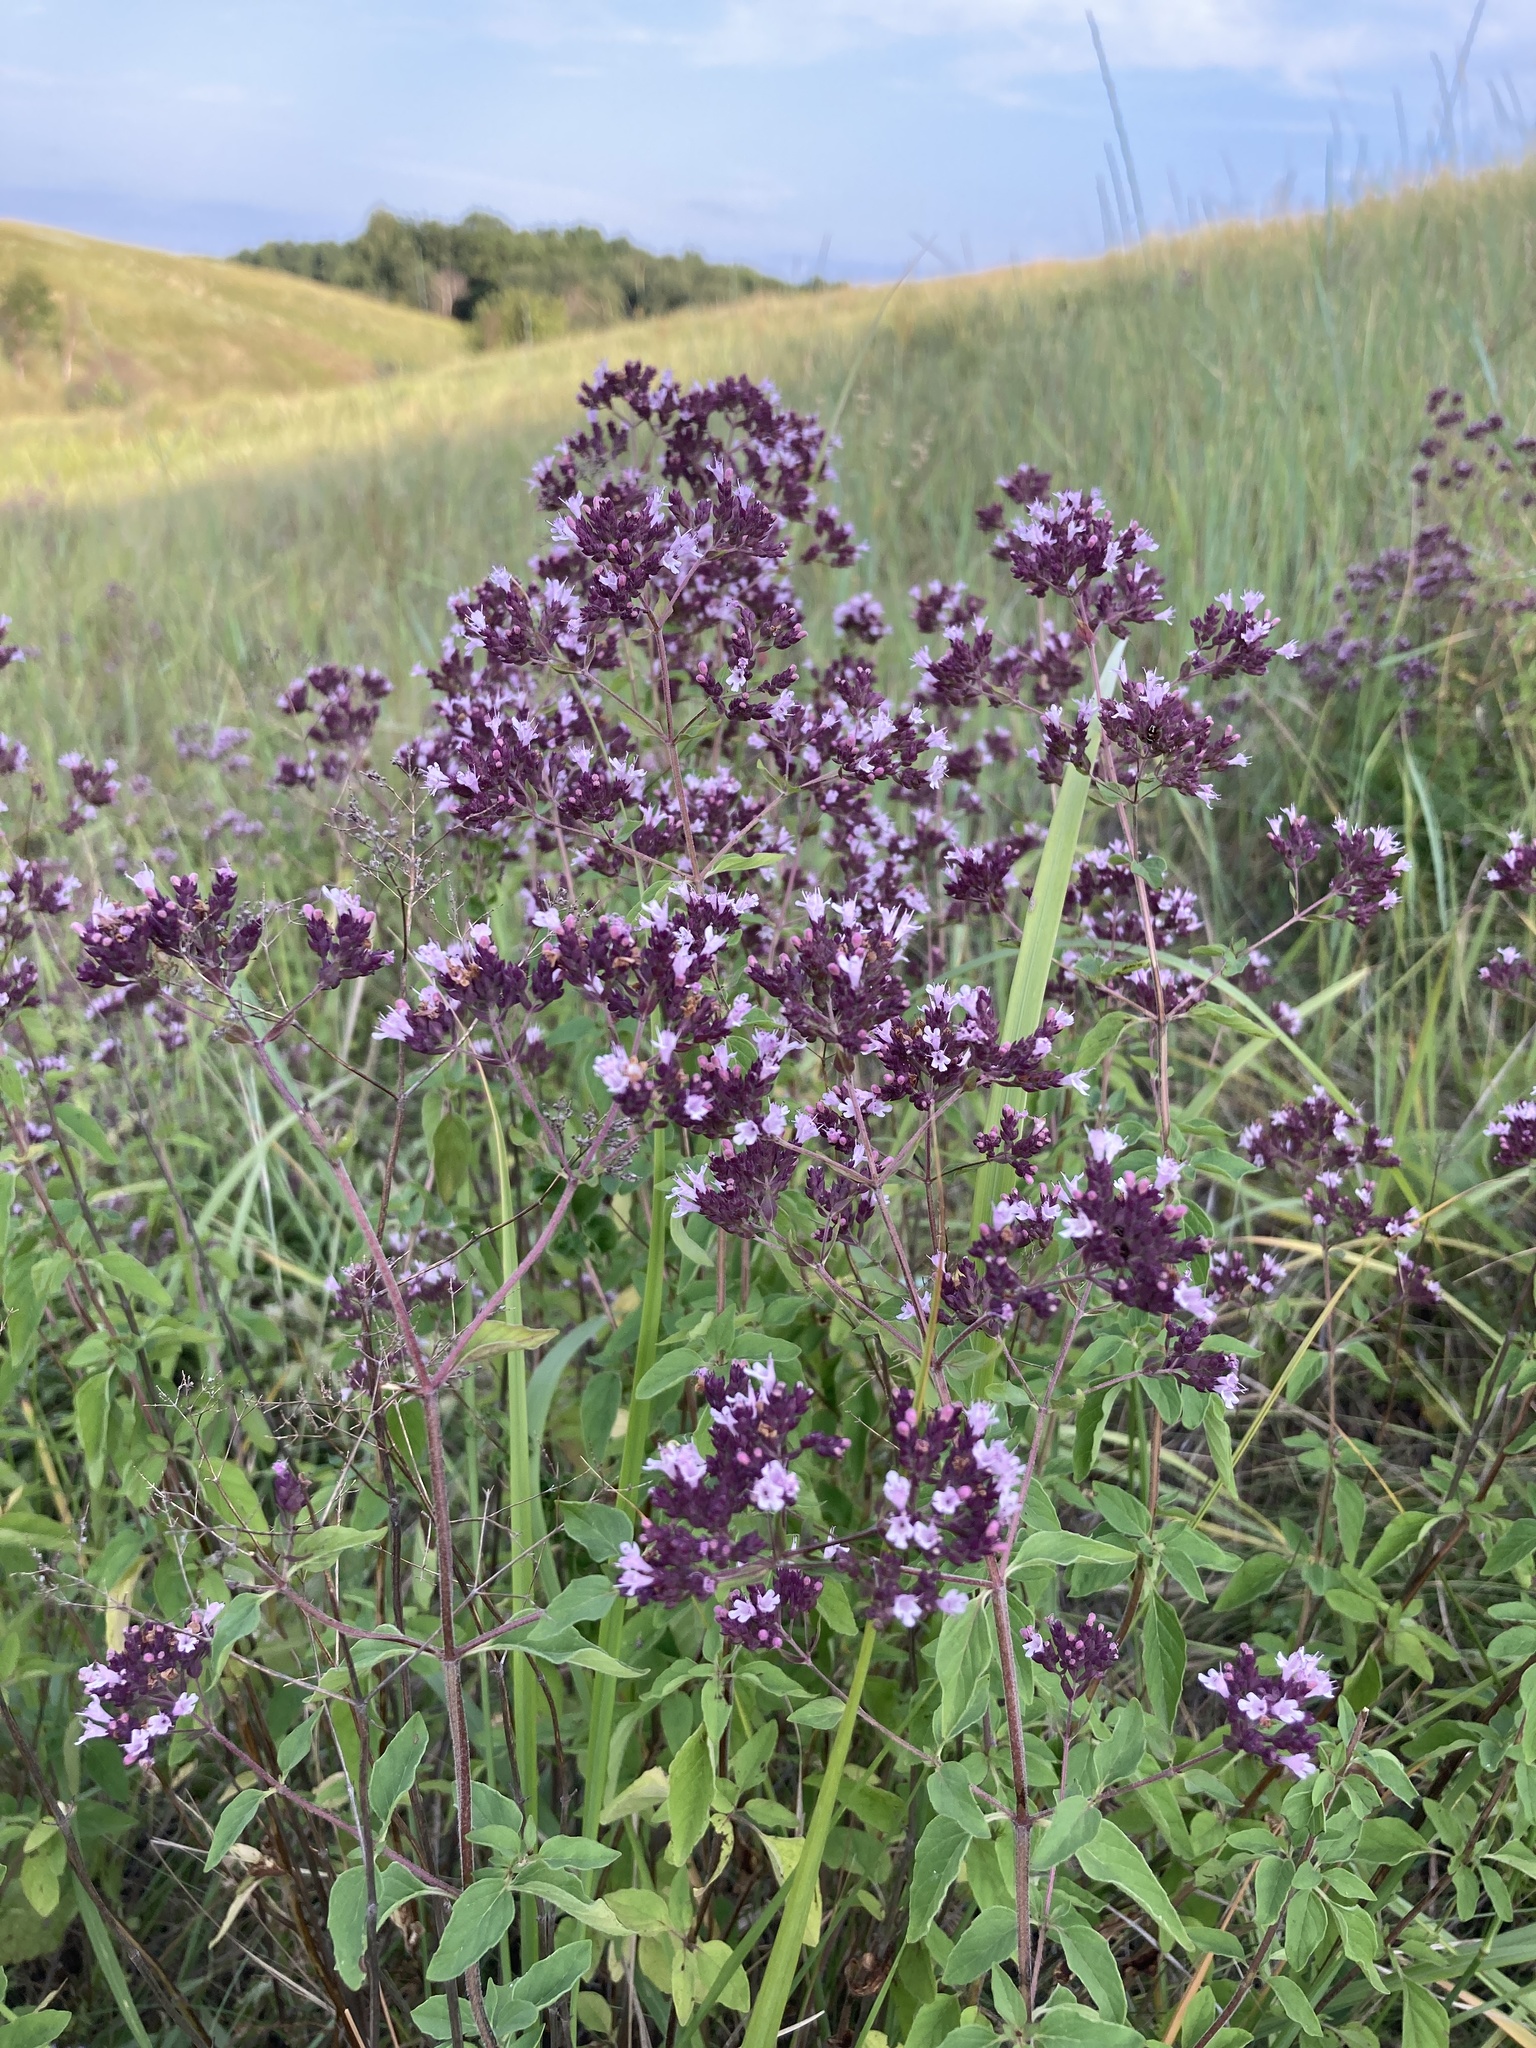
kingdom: Plantae
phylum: Tracheophyta
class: Magnoliopsida
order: Lamiales
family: Lamiaceae
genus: Origanum
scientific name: Origanum vulgare
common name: Wild marjoram
